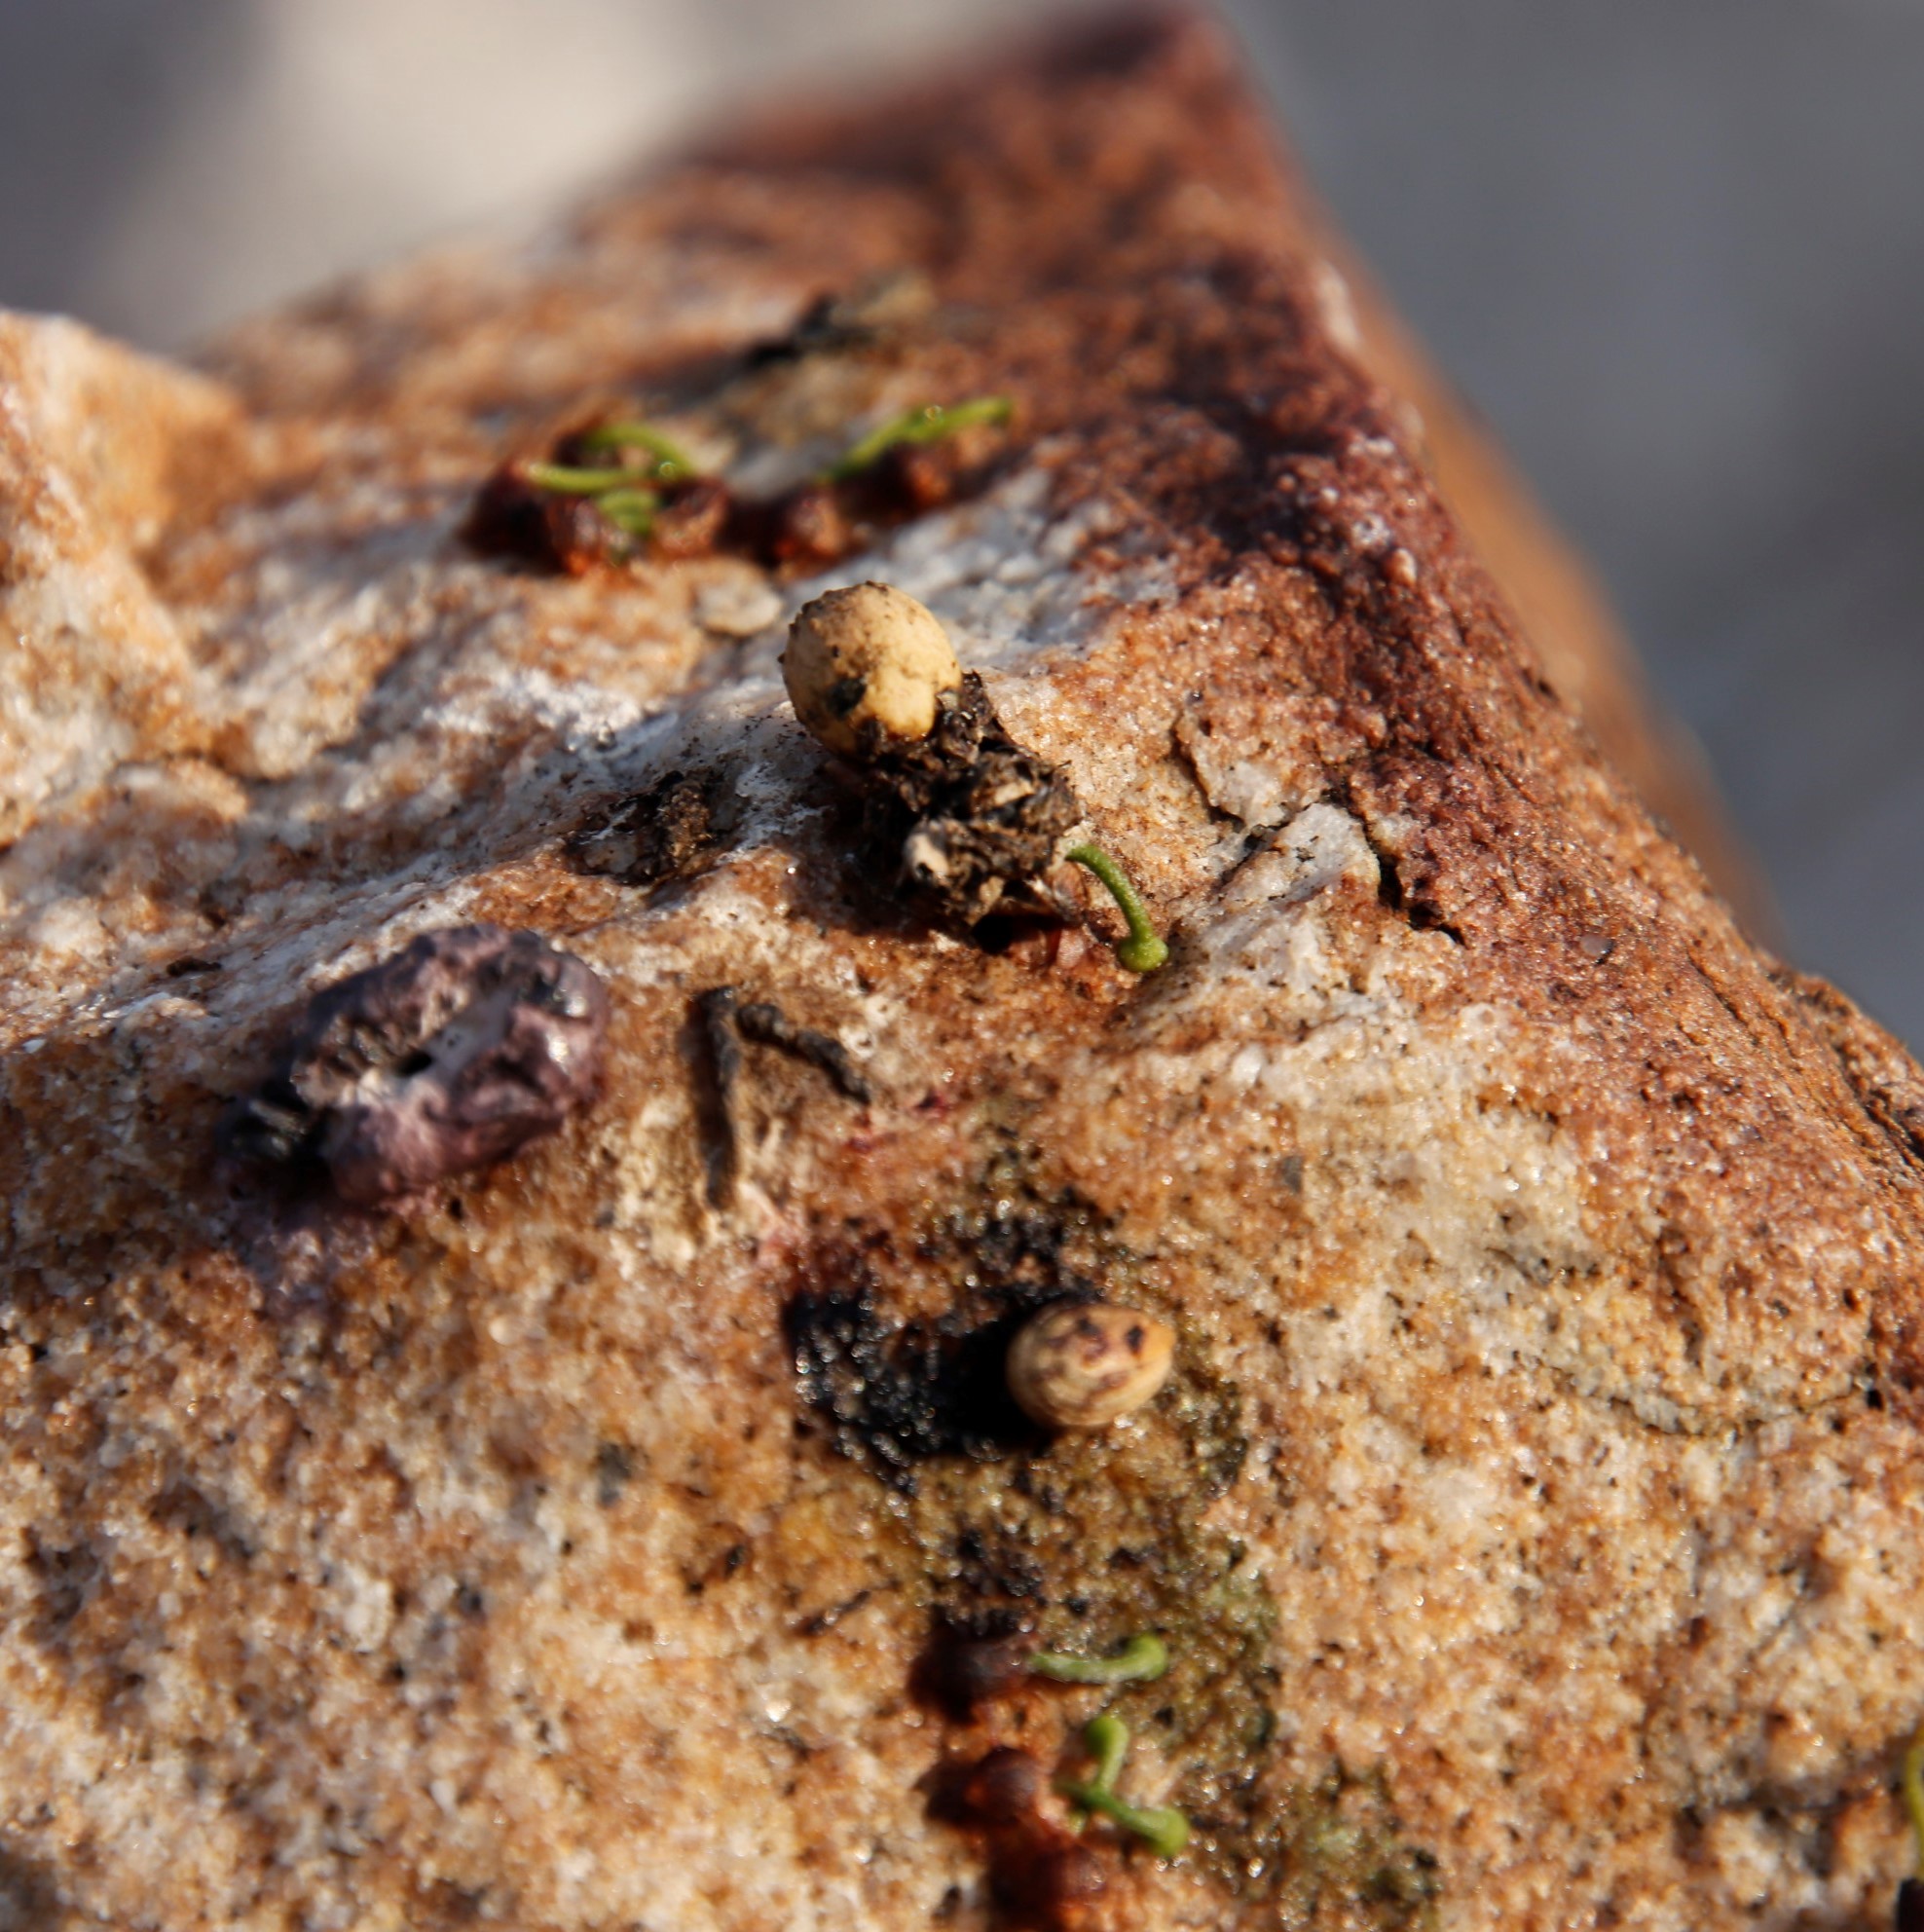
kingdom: Plantae
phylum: Tracheophyta
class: Magnoliopsida
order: Santalales
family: Viscaceae
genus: Viscum
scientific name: Viscum capense
